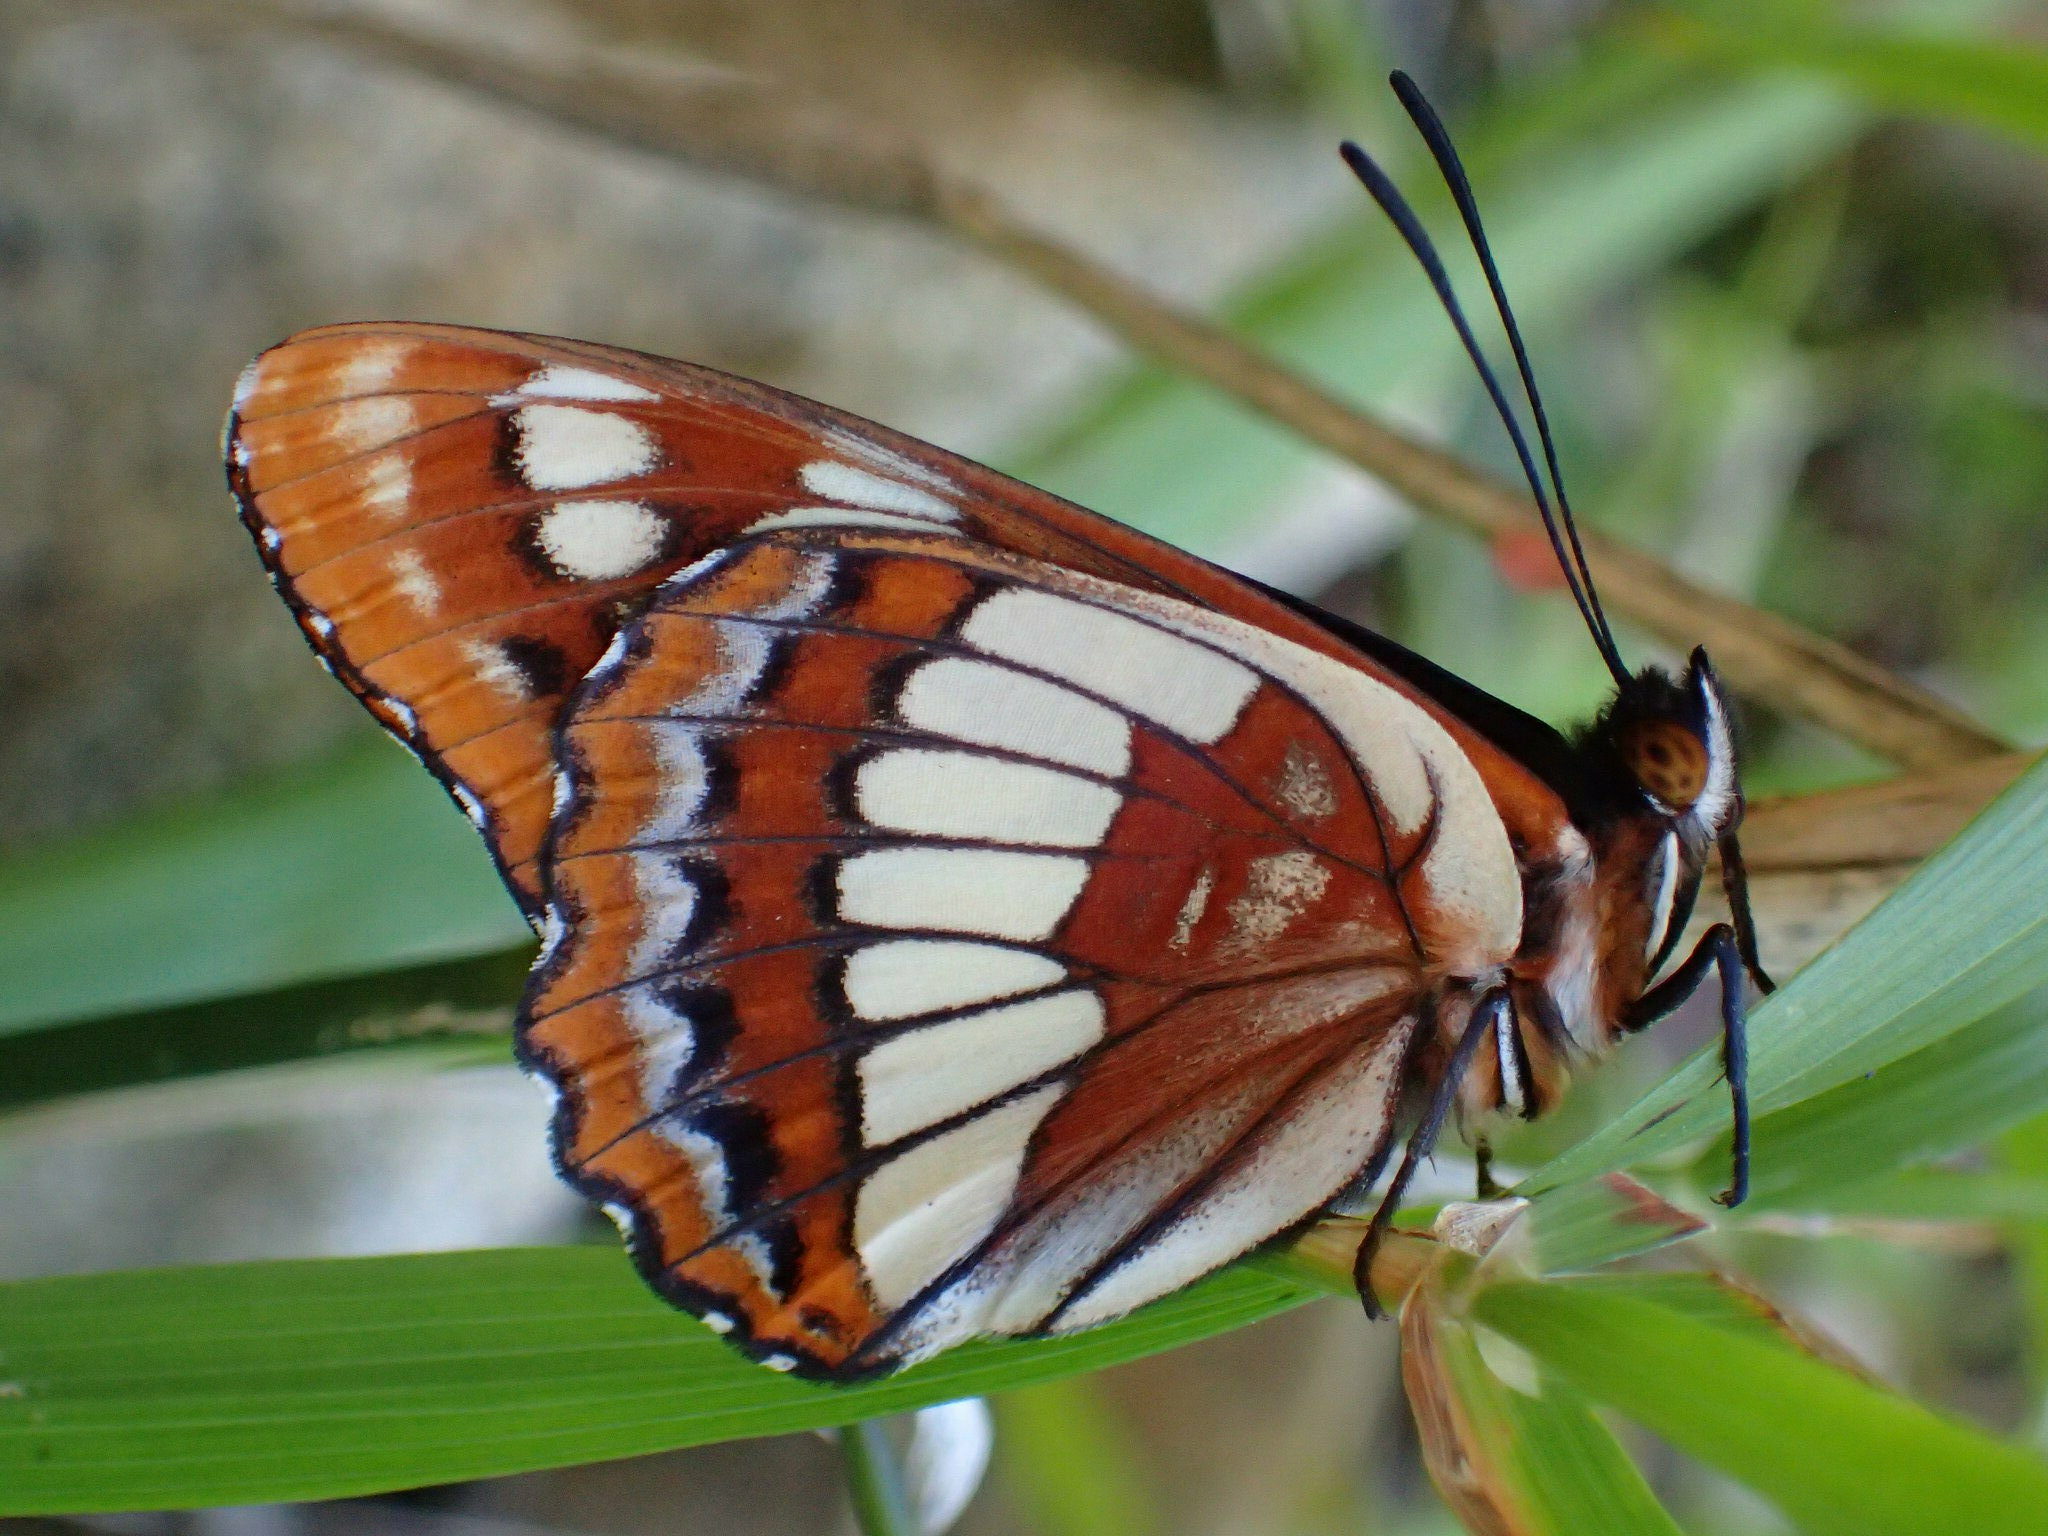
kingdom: Animalia
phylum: Arthropoda
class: Insecta
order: Lepidoptera
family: Nymphalidae
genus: Limenitis
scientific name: Limenitis lorquini
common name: Lorquin's admiral
